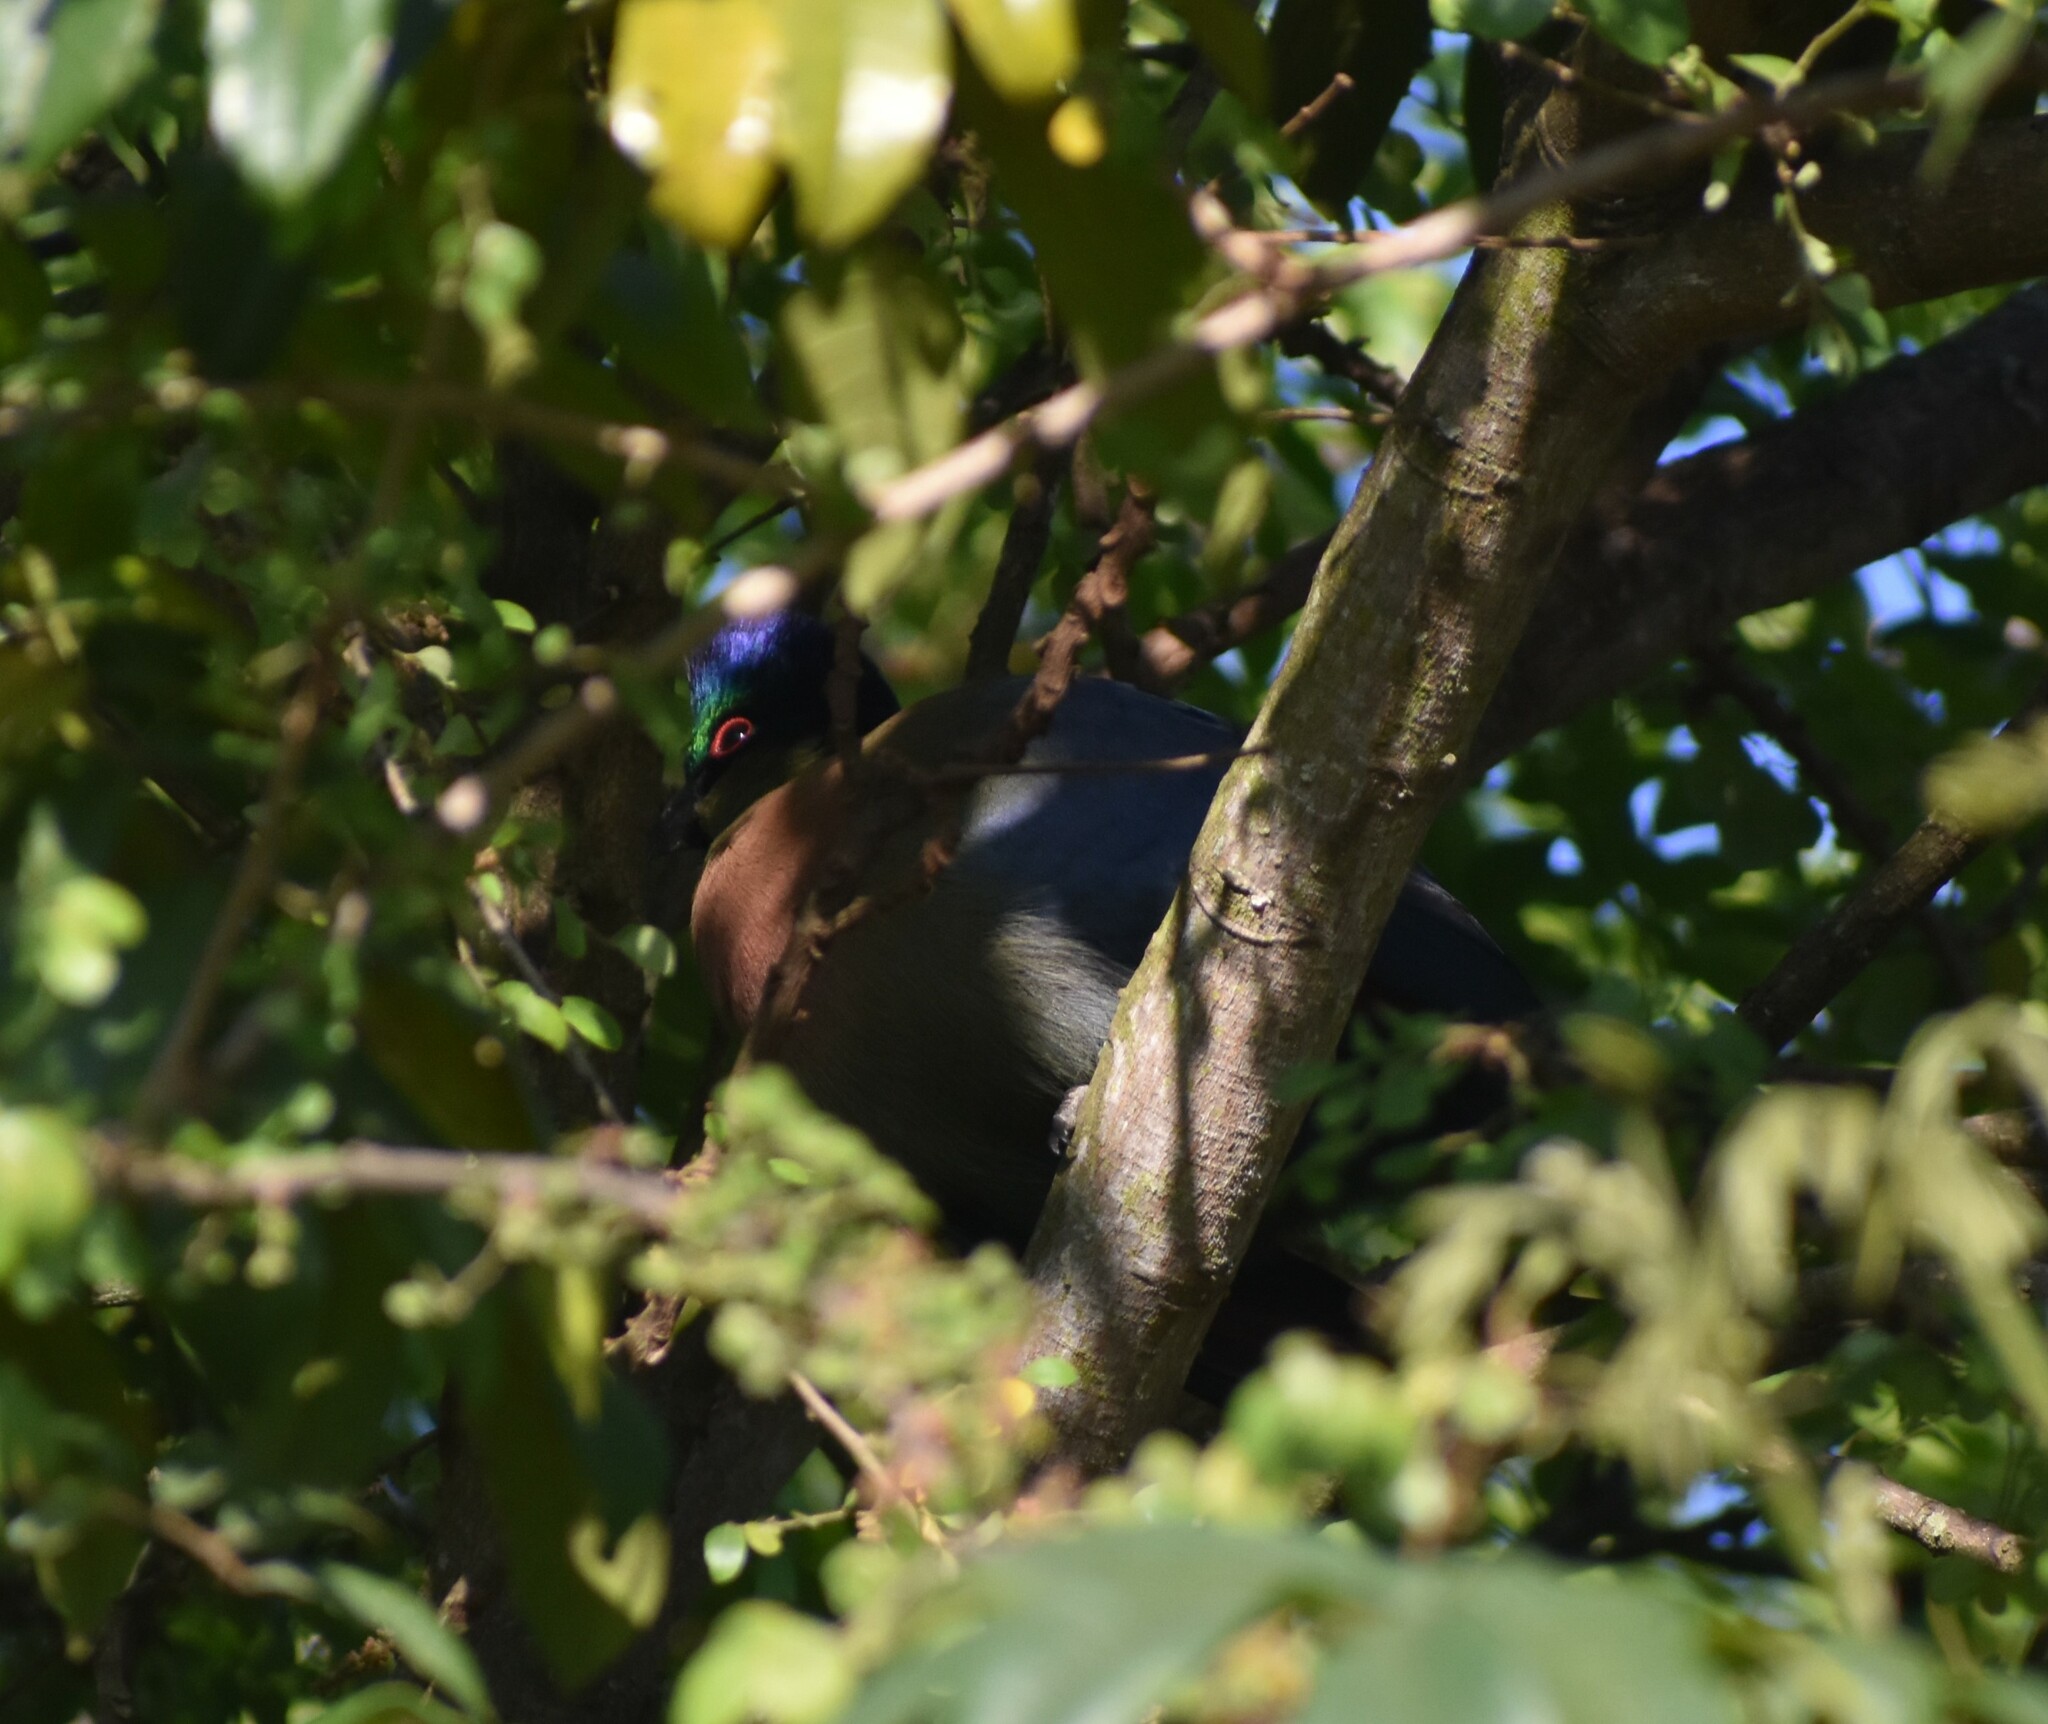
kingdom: Animalia
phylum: Chordata
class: Aves
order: Musophagiformes
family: Musophagidae
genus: Tauraco
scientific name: Tauraco porphyreolophus
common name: Purple-crested turaco
